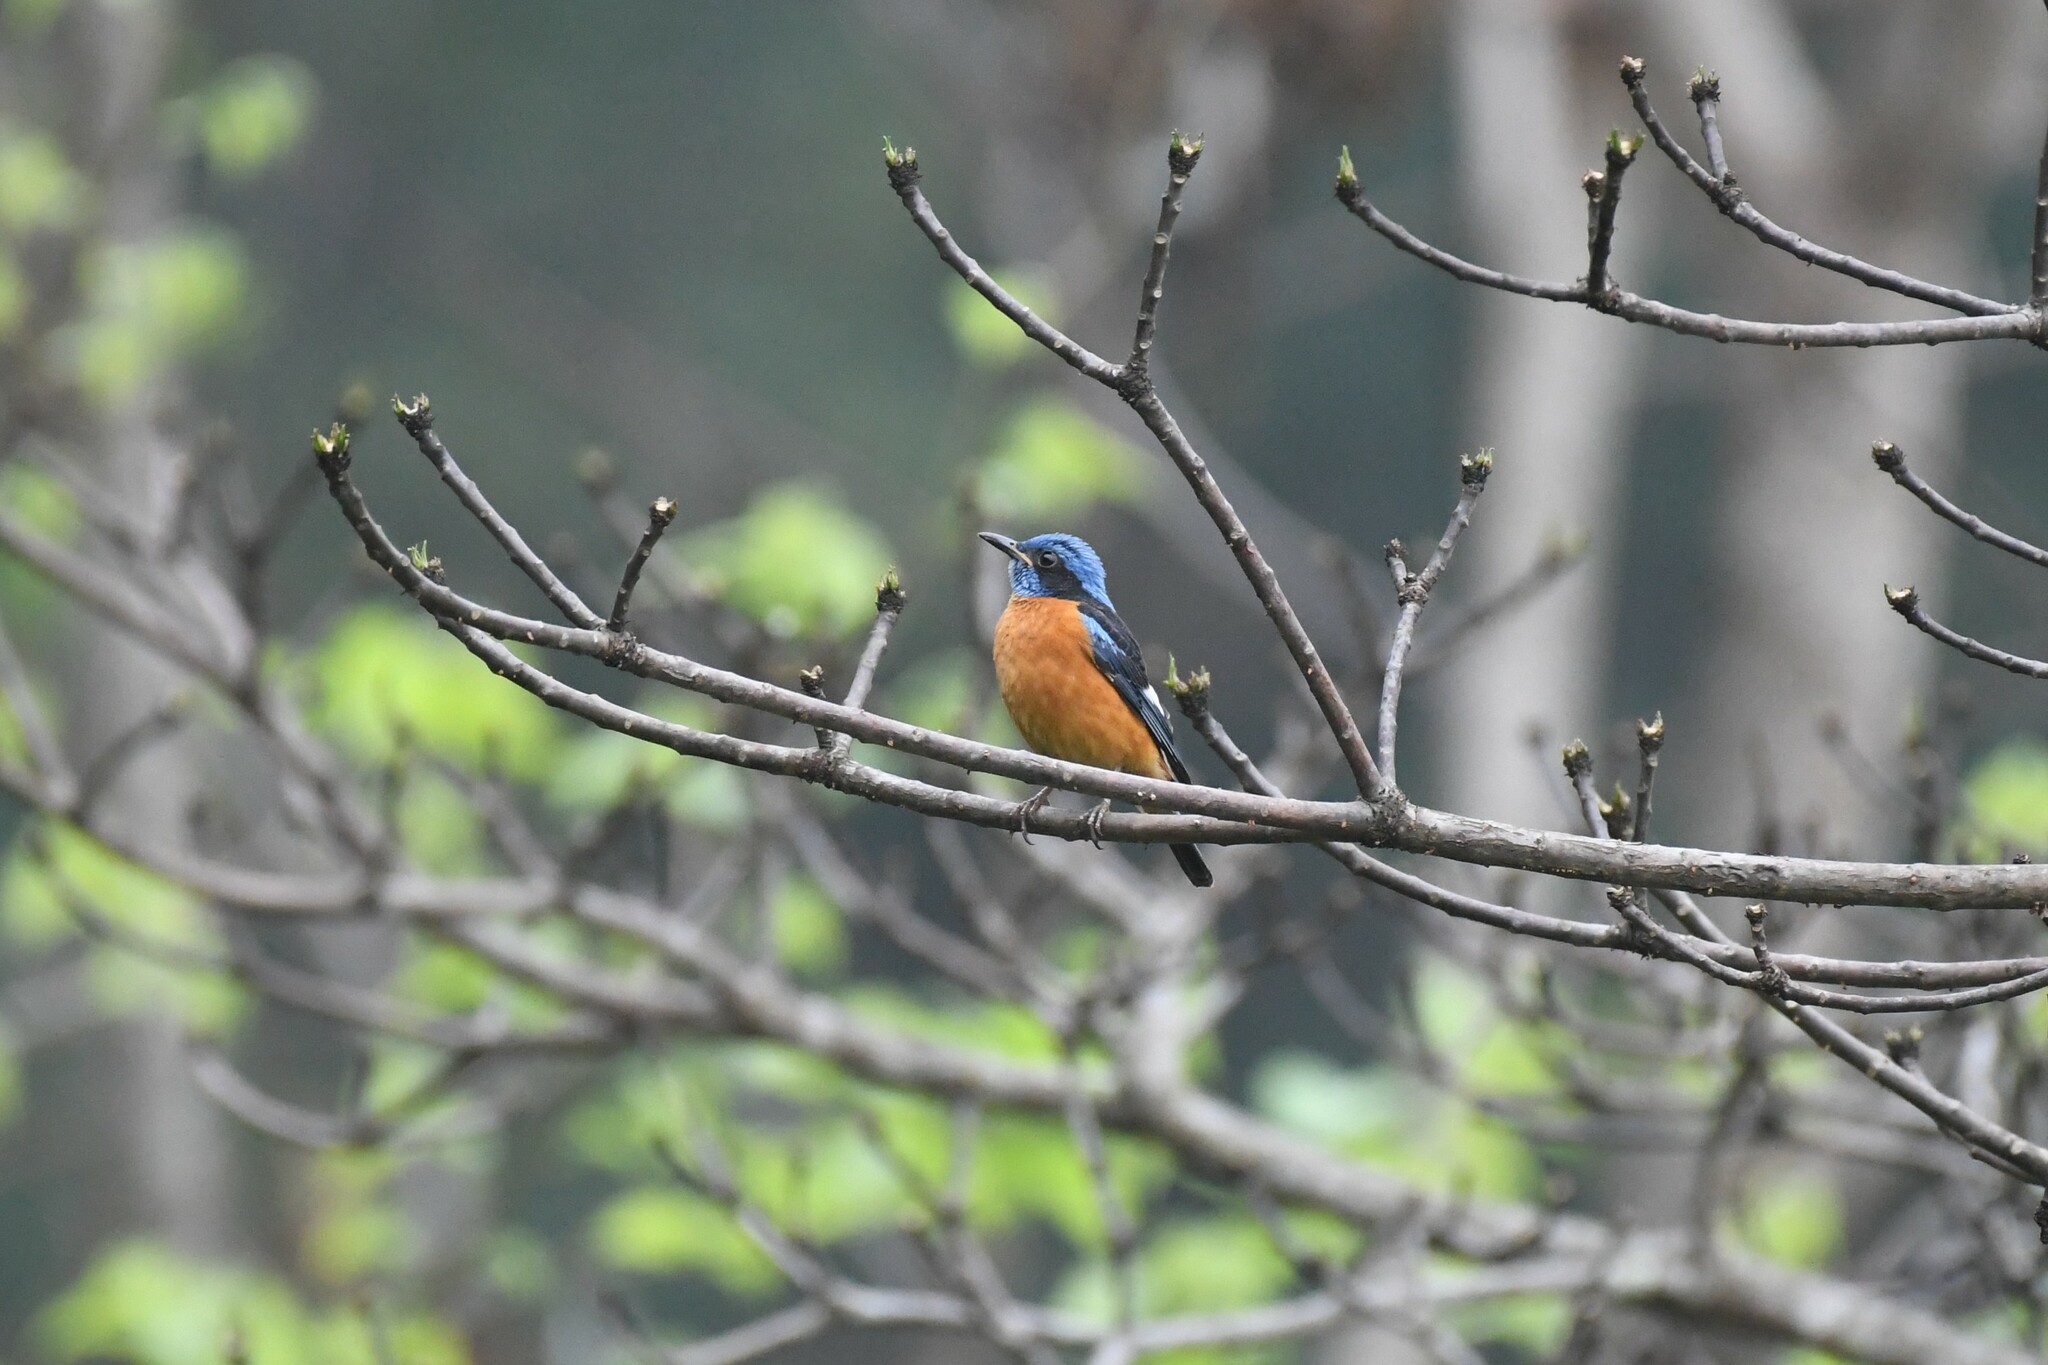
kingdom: Animalia
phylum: Chordata
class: Aves
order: Passeriformes
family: Muscicapidae
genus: Monticola
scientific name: Monticola cinclorhynchus
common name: Blue-capped rock thrush
